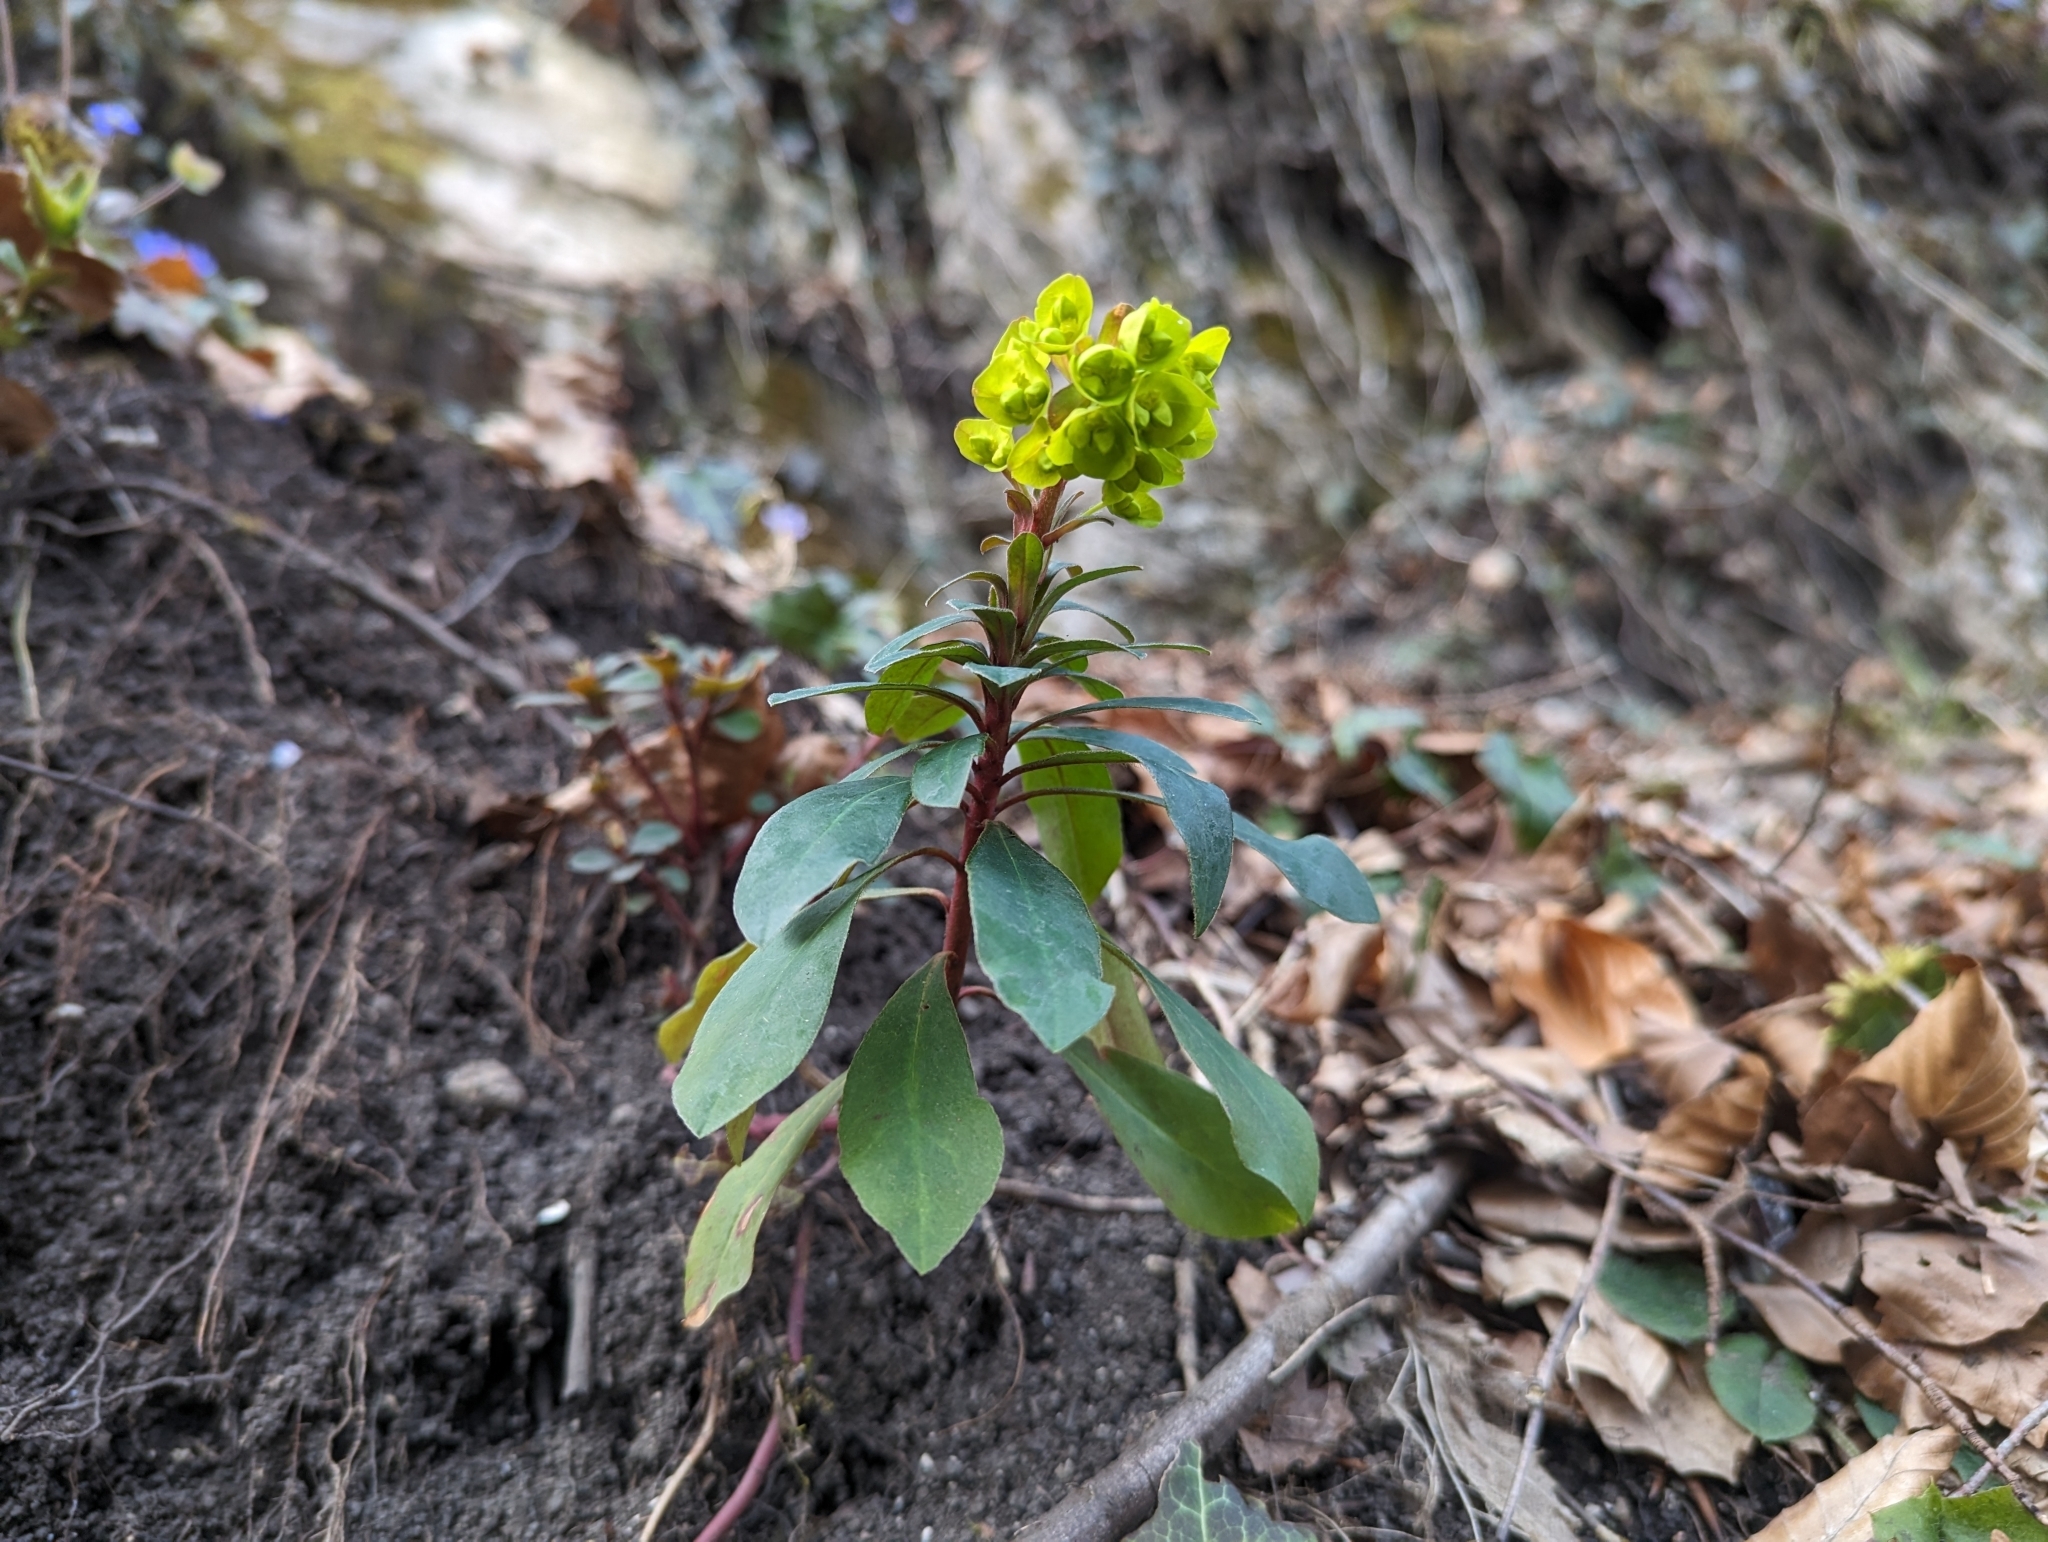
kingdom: Plantae
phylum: Tracheophyta
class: Magnoliopsida
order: Malpighiales
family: Euphorbiaceae
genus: Euphorbia
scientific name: Euphorbia amygdaloides
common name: Wood spurge
